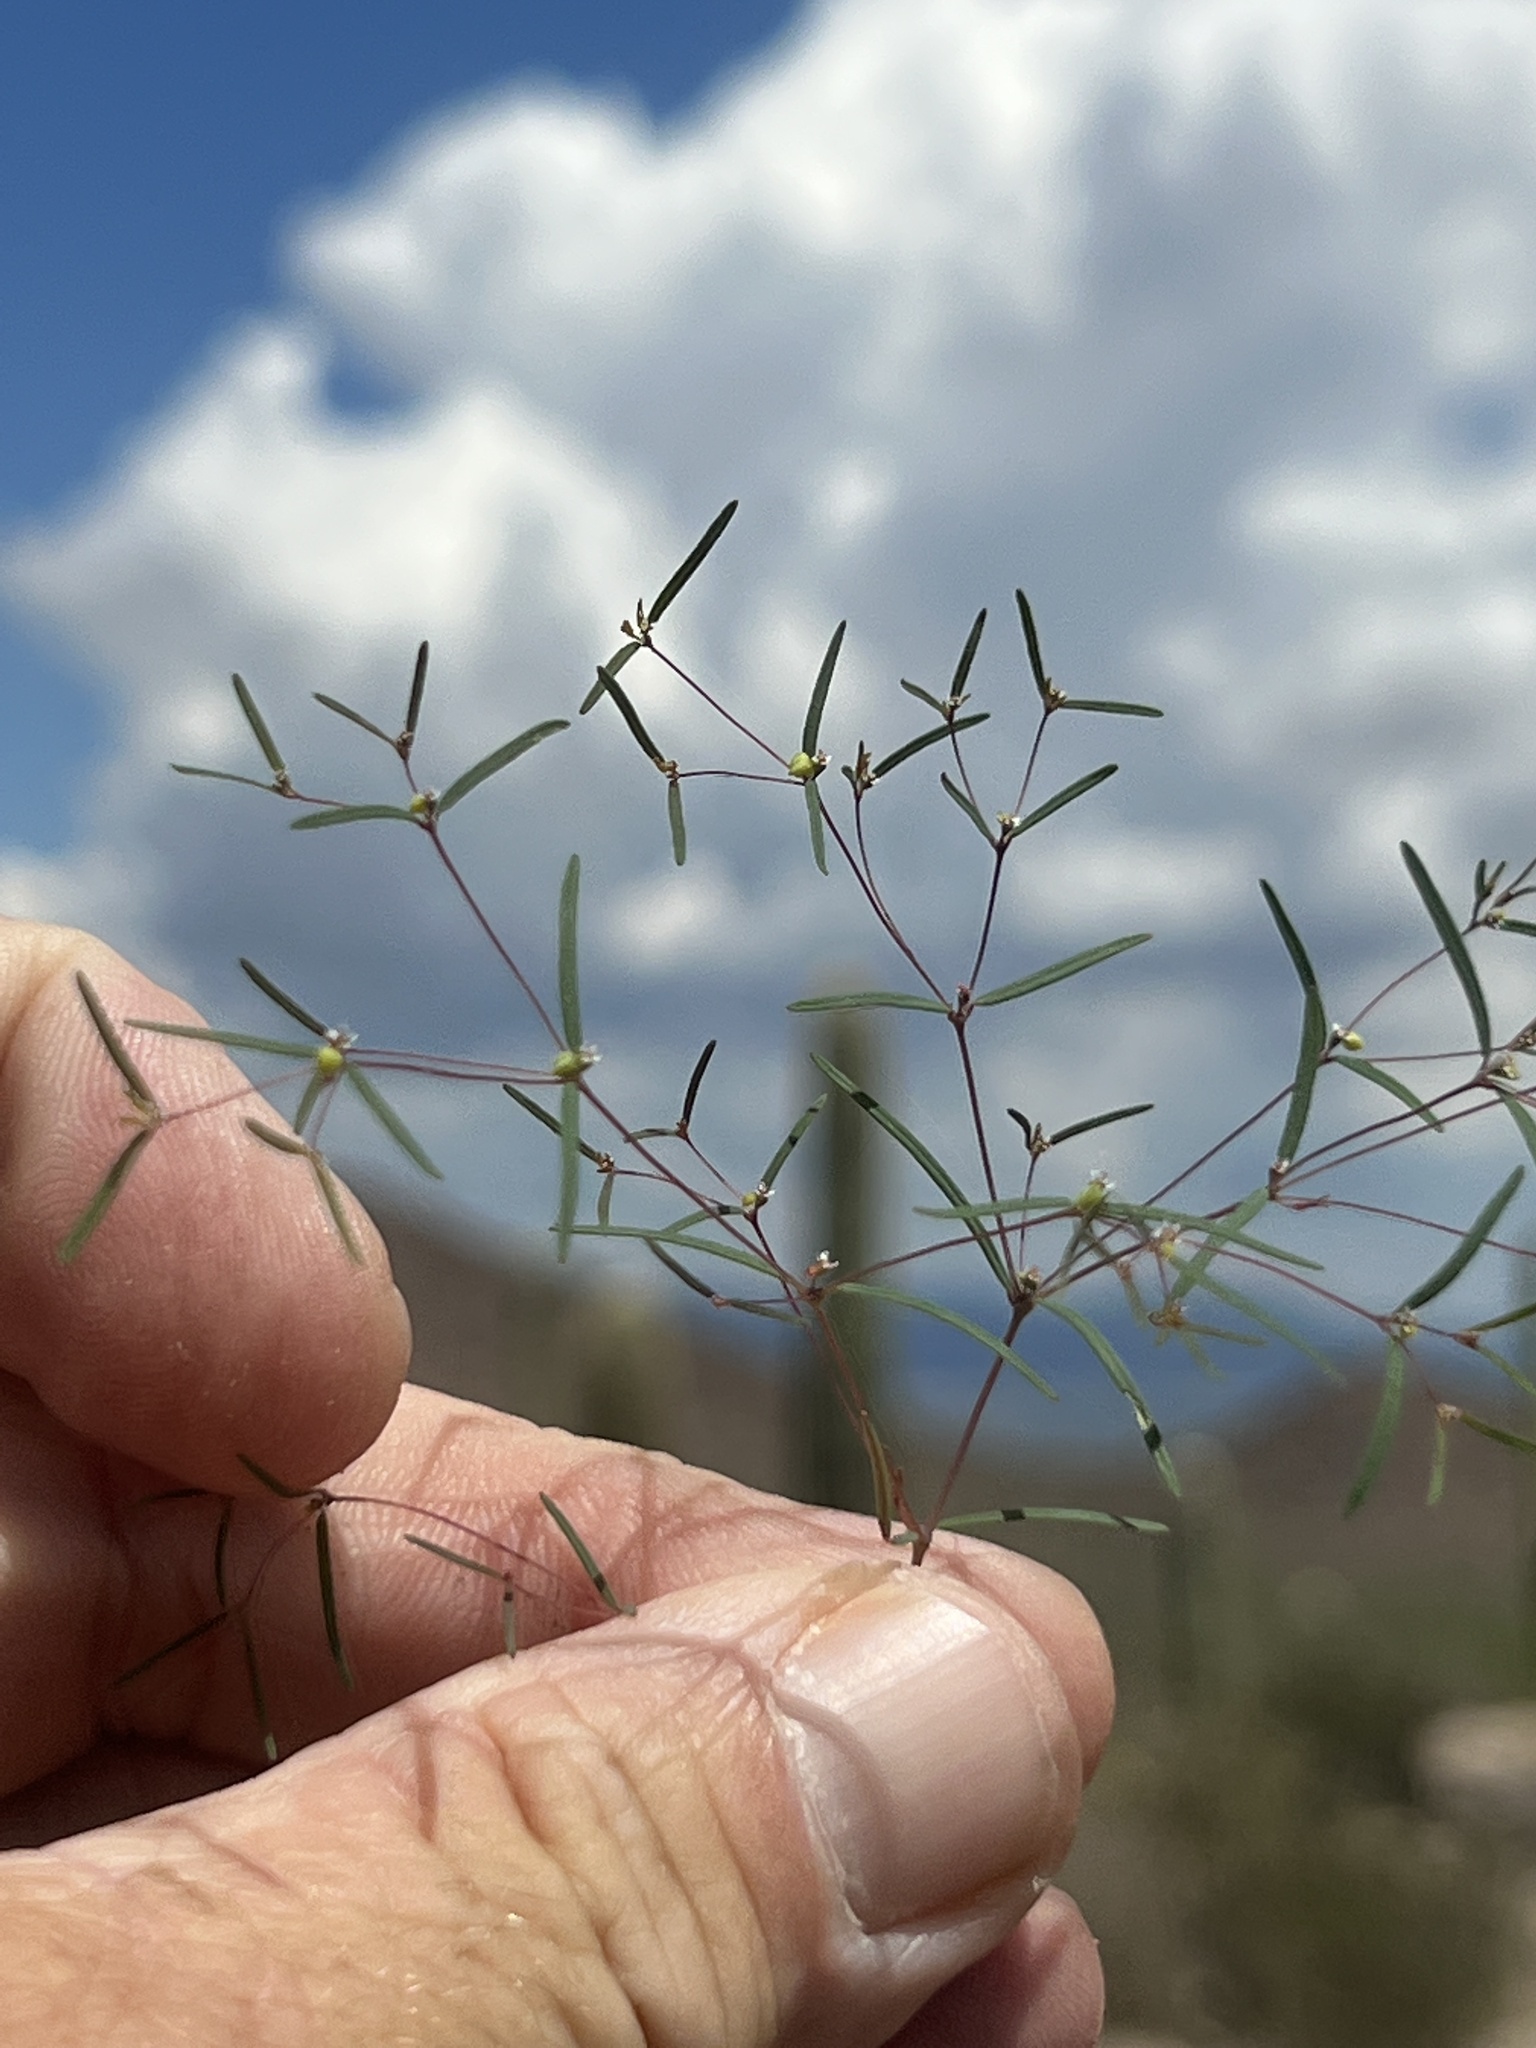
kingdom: Plantae
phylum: Tracheophyta
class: Magnoliopsida
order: Malpighiales
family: Euphorbiaceae
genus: Euphorbia
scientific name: Euphorbia gracillima
